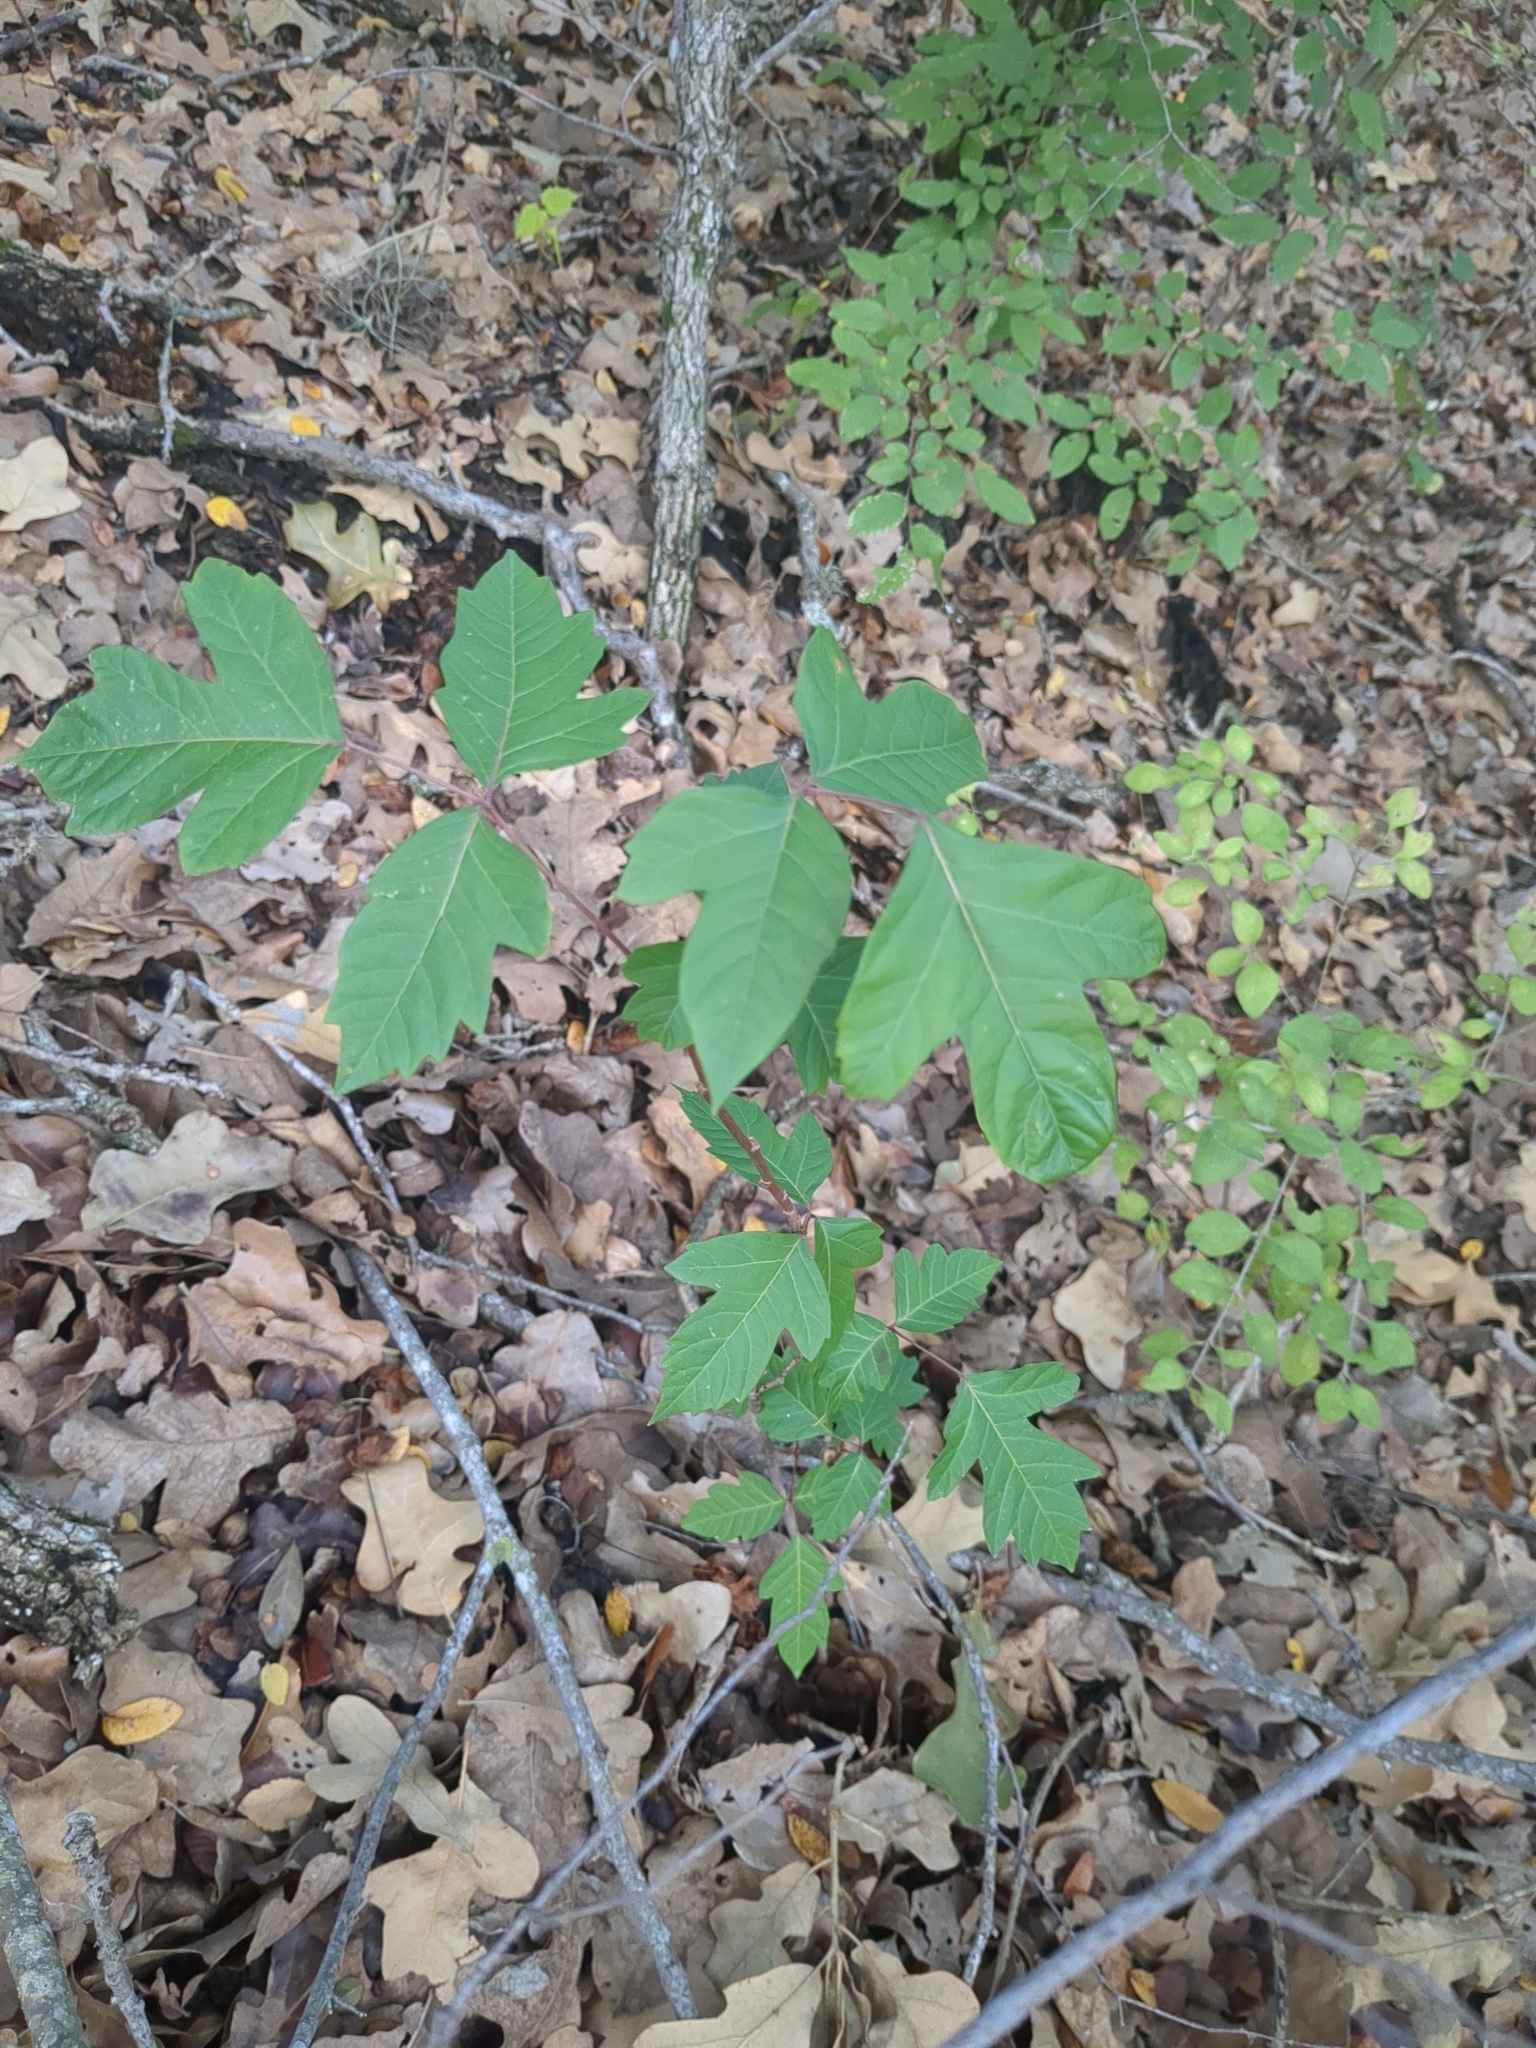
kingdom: Plantae
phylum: Tracheophyta
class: Magnoliopsida
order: Sapindales
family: Anacardiaceae
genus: Toxicodendron
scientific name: Toxicodendron radicans
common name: Poison ivy
